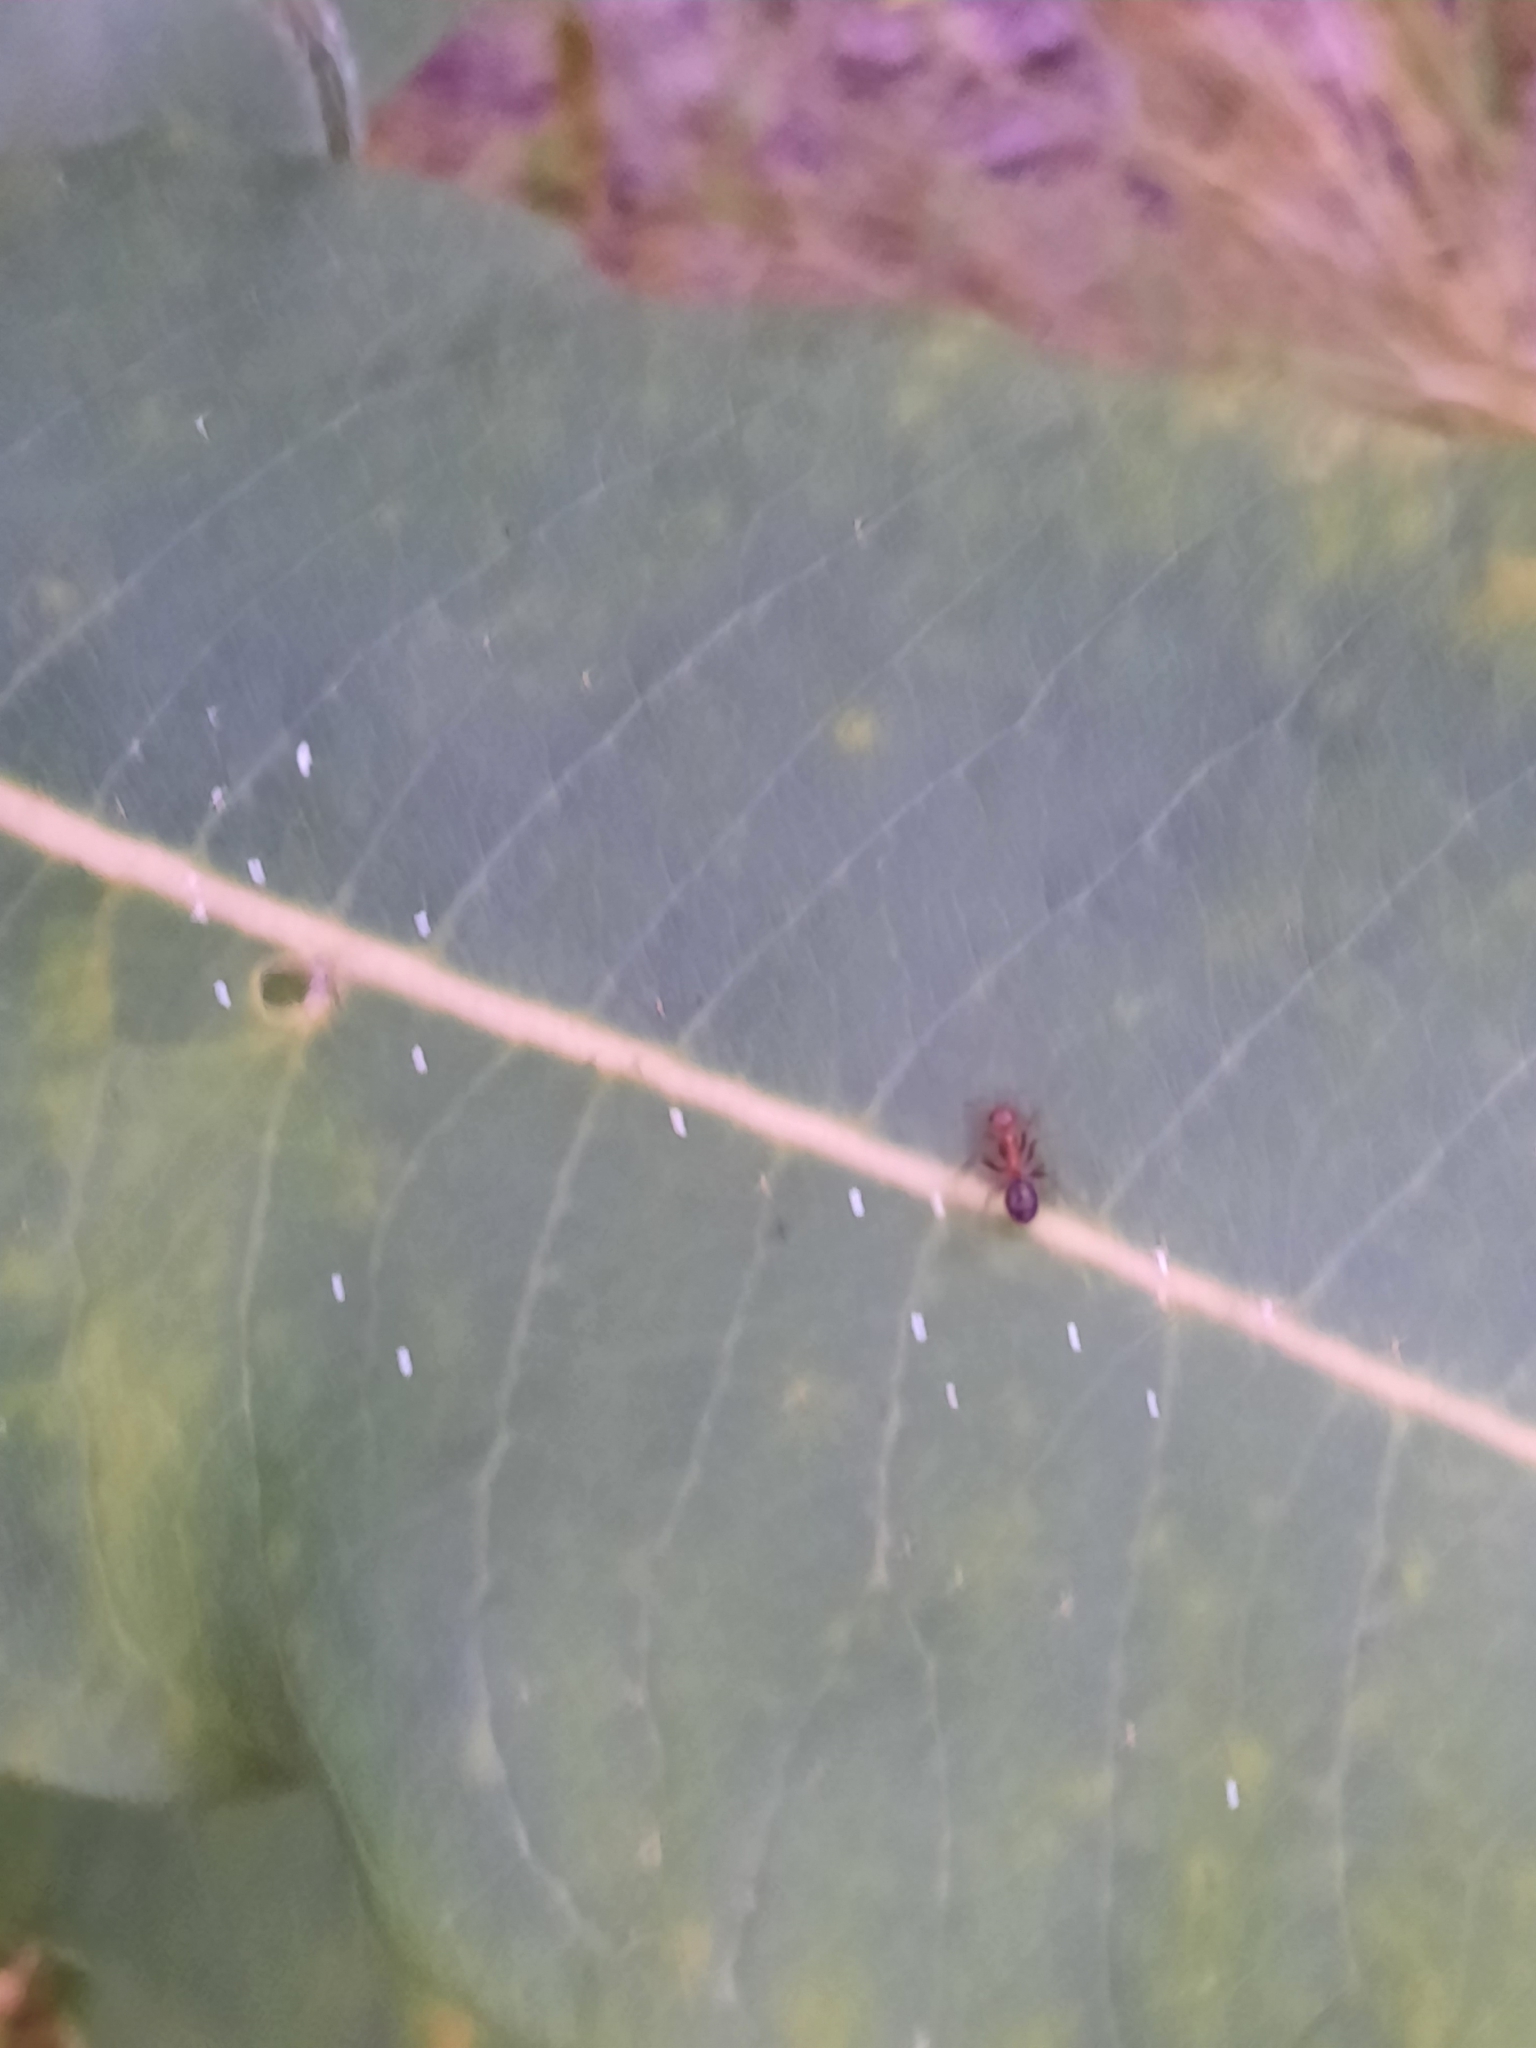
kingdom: Animalia
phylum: Arthropoda
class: Insecta
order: Hymenoptera
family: Formicidae
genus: Formica
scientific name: Formica
